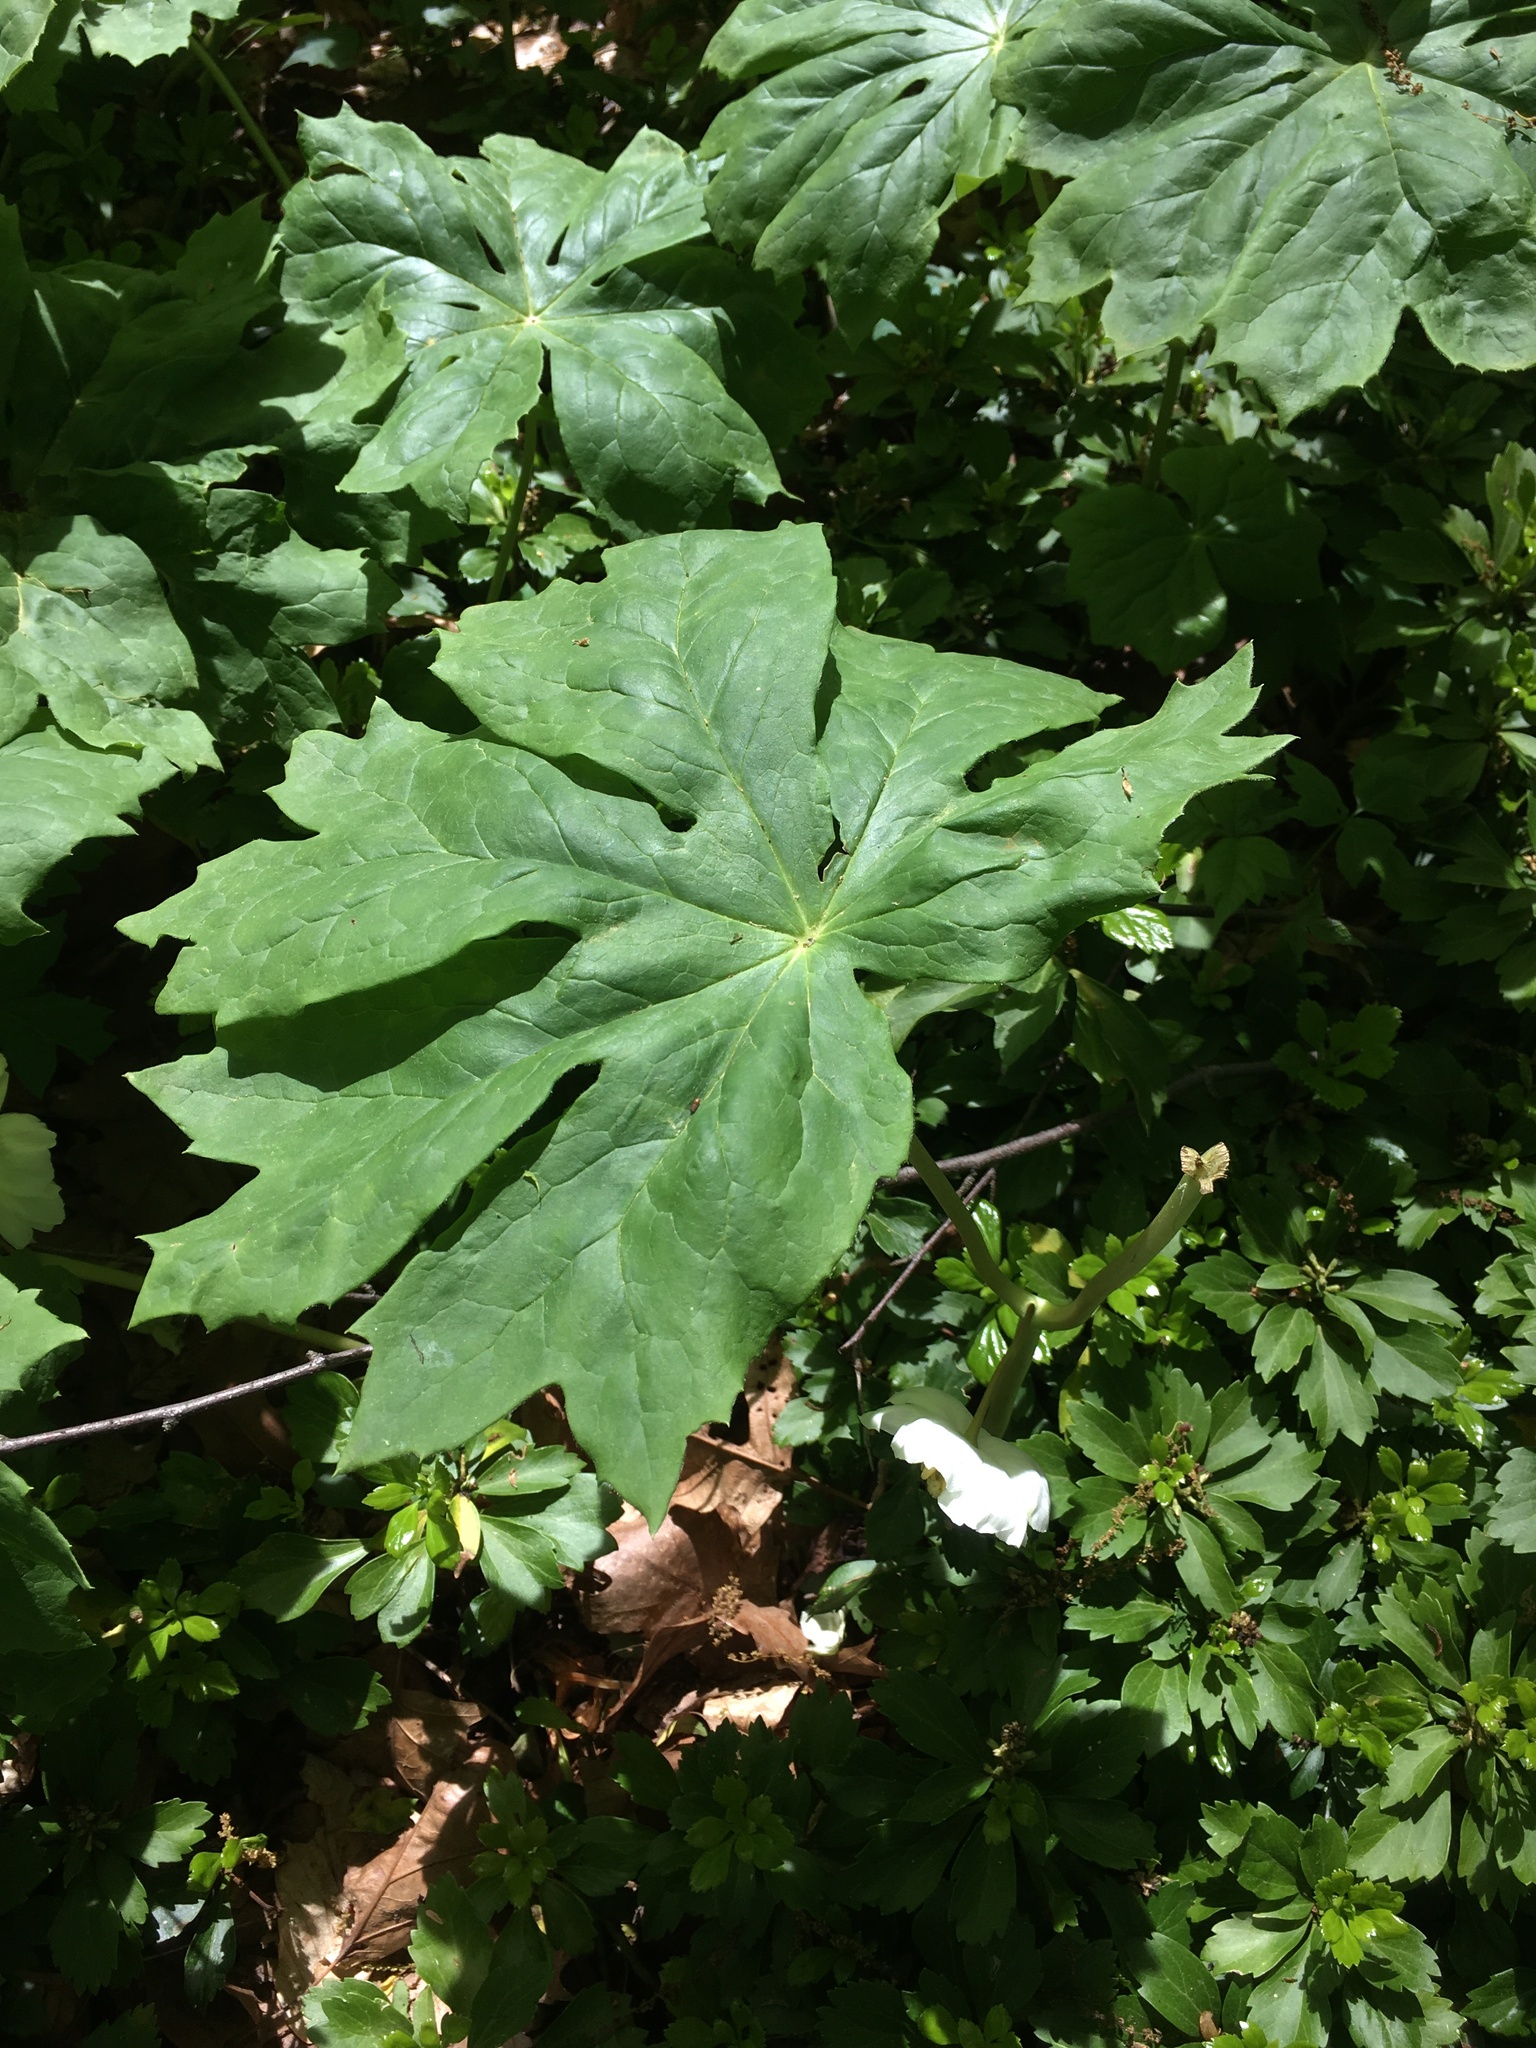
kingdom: Plantae
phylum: Tracheophyta
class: Magnoliopsida
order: Ranunculales
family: Berberidaceae
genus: Podophyllum
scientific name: Podophyllum peltatum
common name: Wild mandrake
